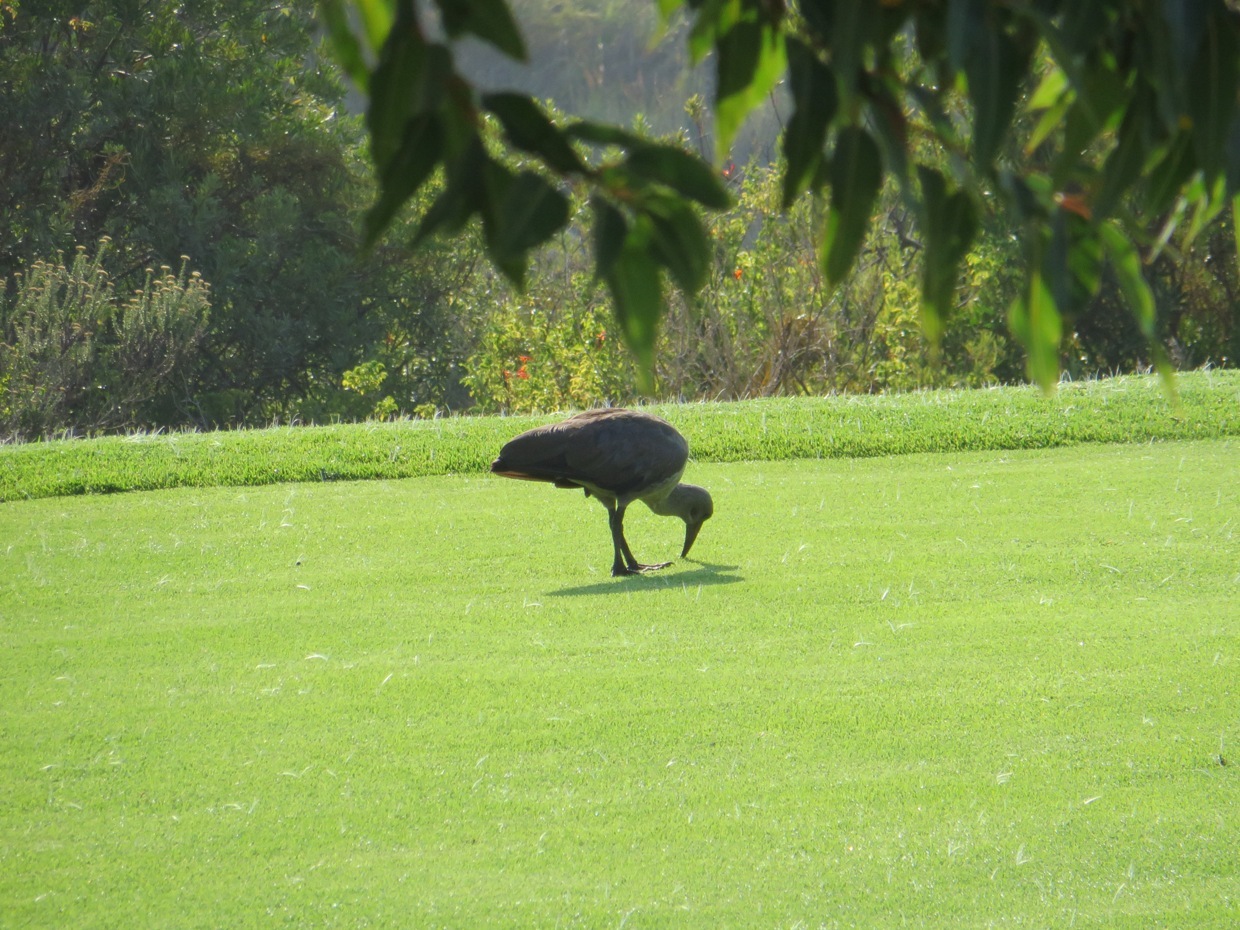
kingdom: Animalia
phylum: Chordata
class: Aves
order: Pelecaniformes
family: Threskiornithidae
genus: Bostrychia
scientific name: Bostrychia hagedash
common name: Hadada ibis
